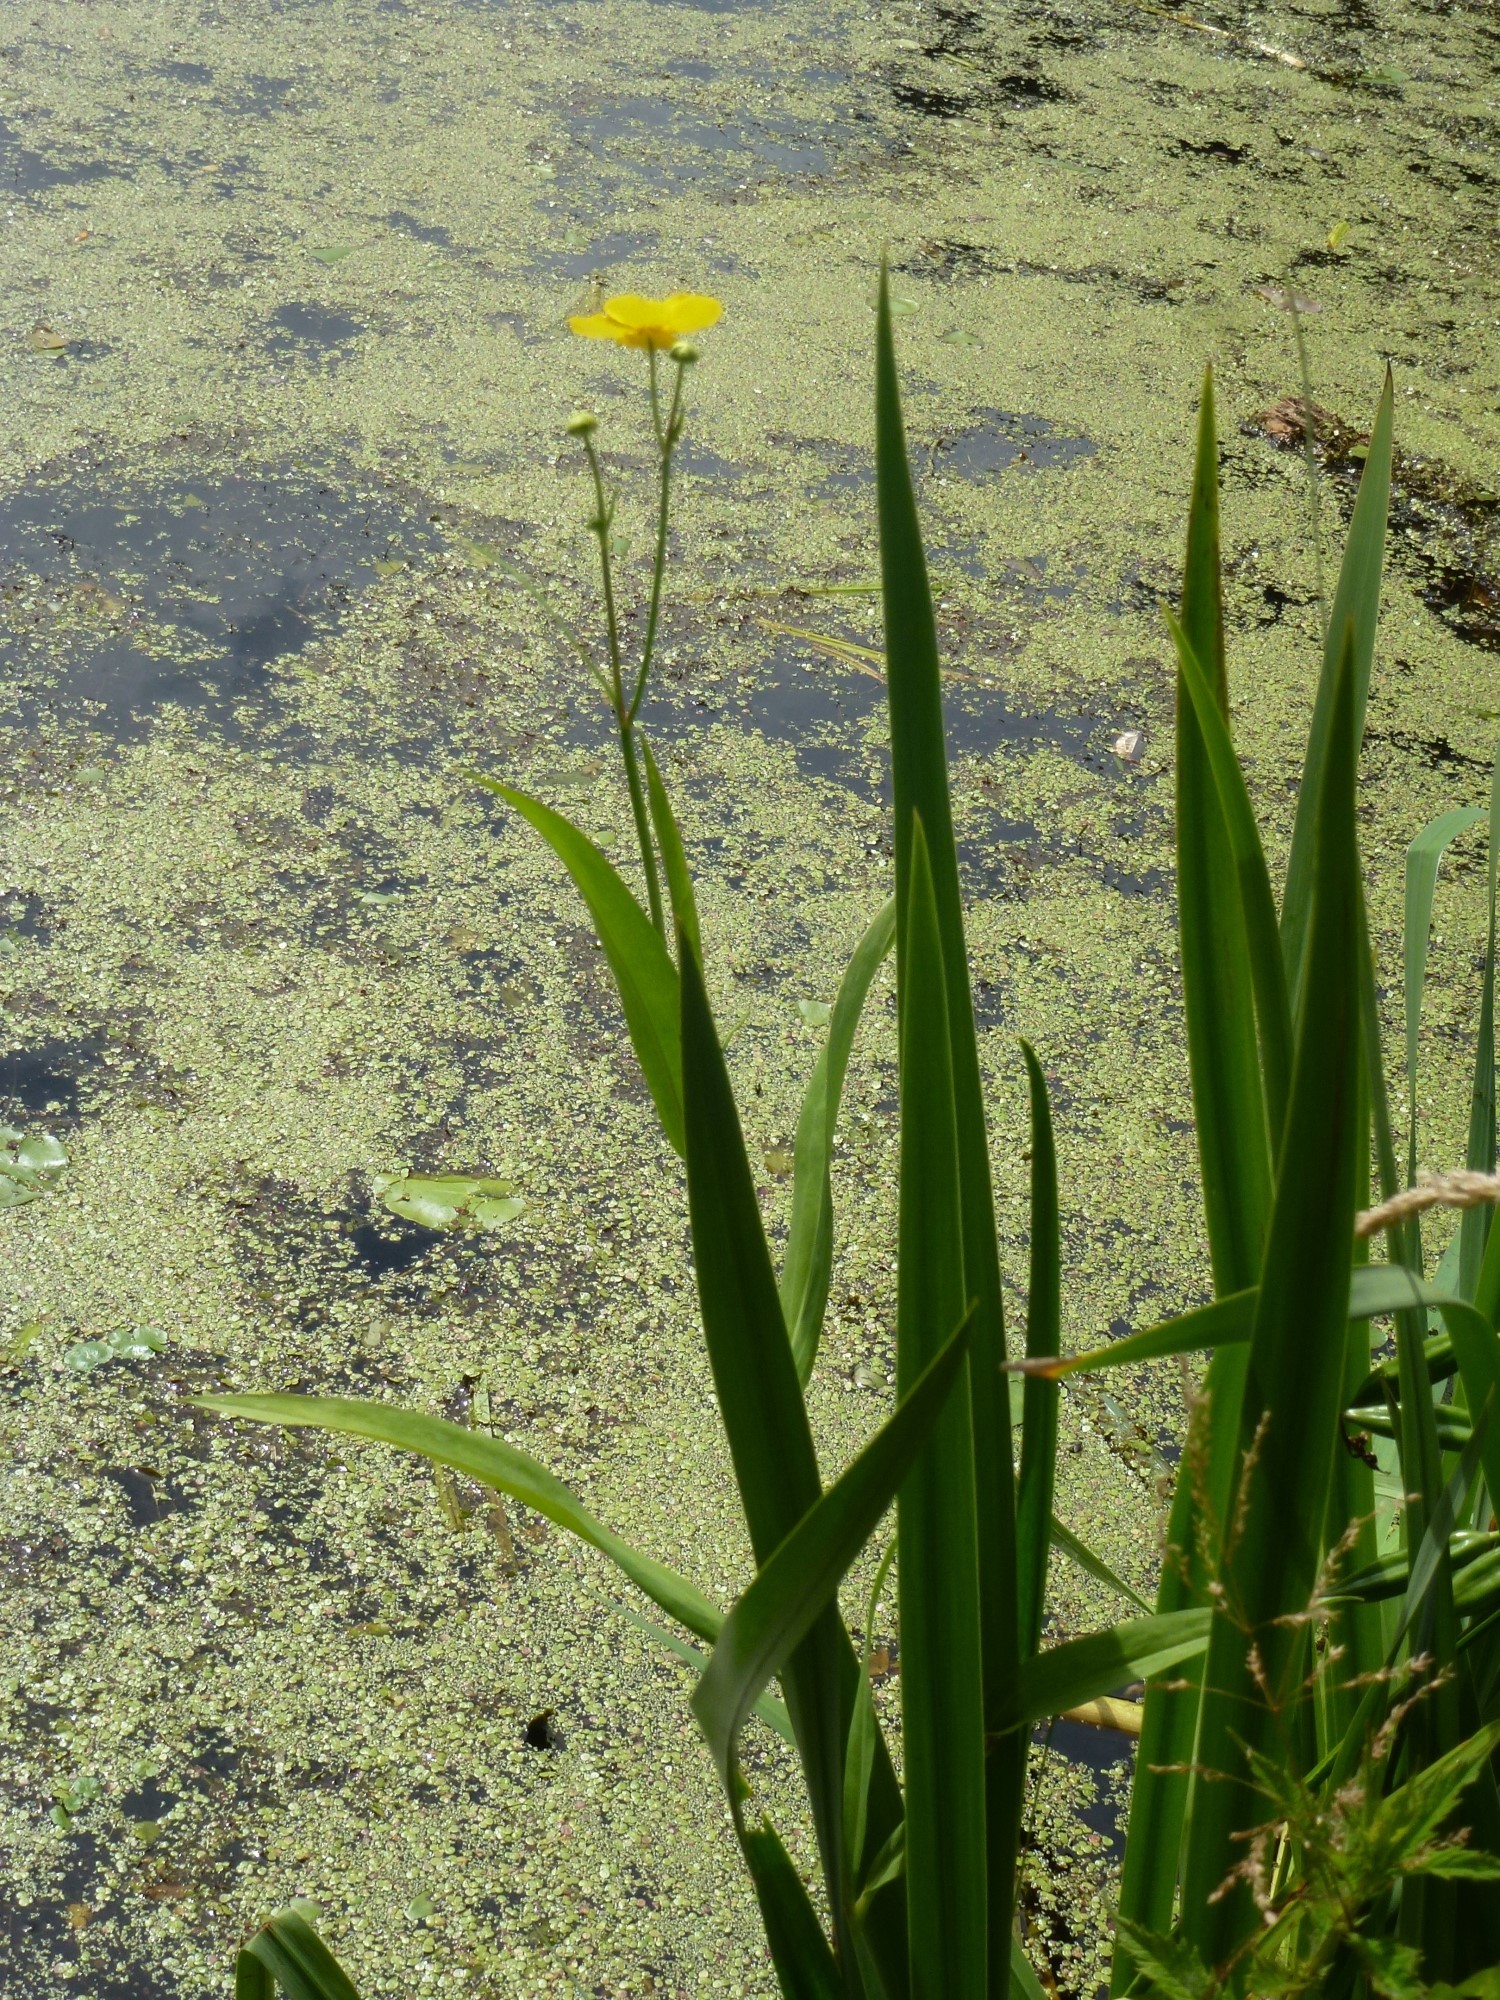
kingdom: Plantae
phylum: Tracheophyta
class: Magnoliopsida
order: Ranunculales
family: Ranunculaceae
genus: Ranunculus
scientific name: Ranunculus lingua
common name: Greater spearwort
